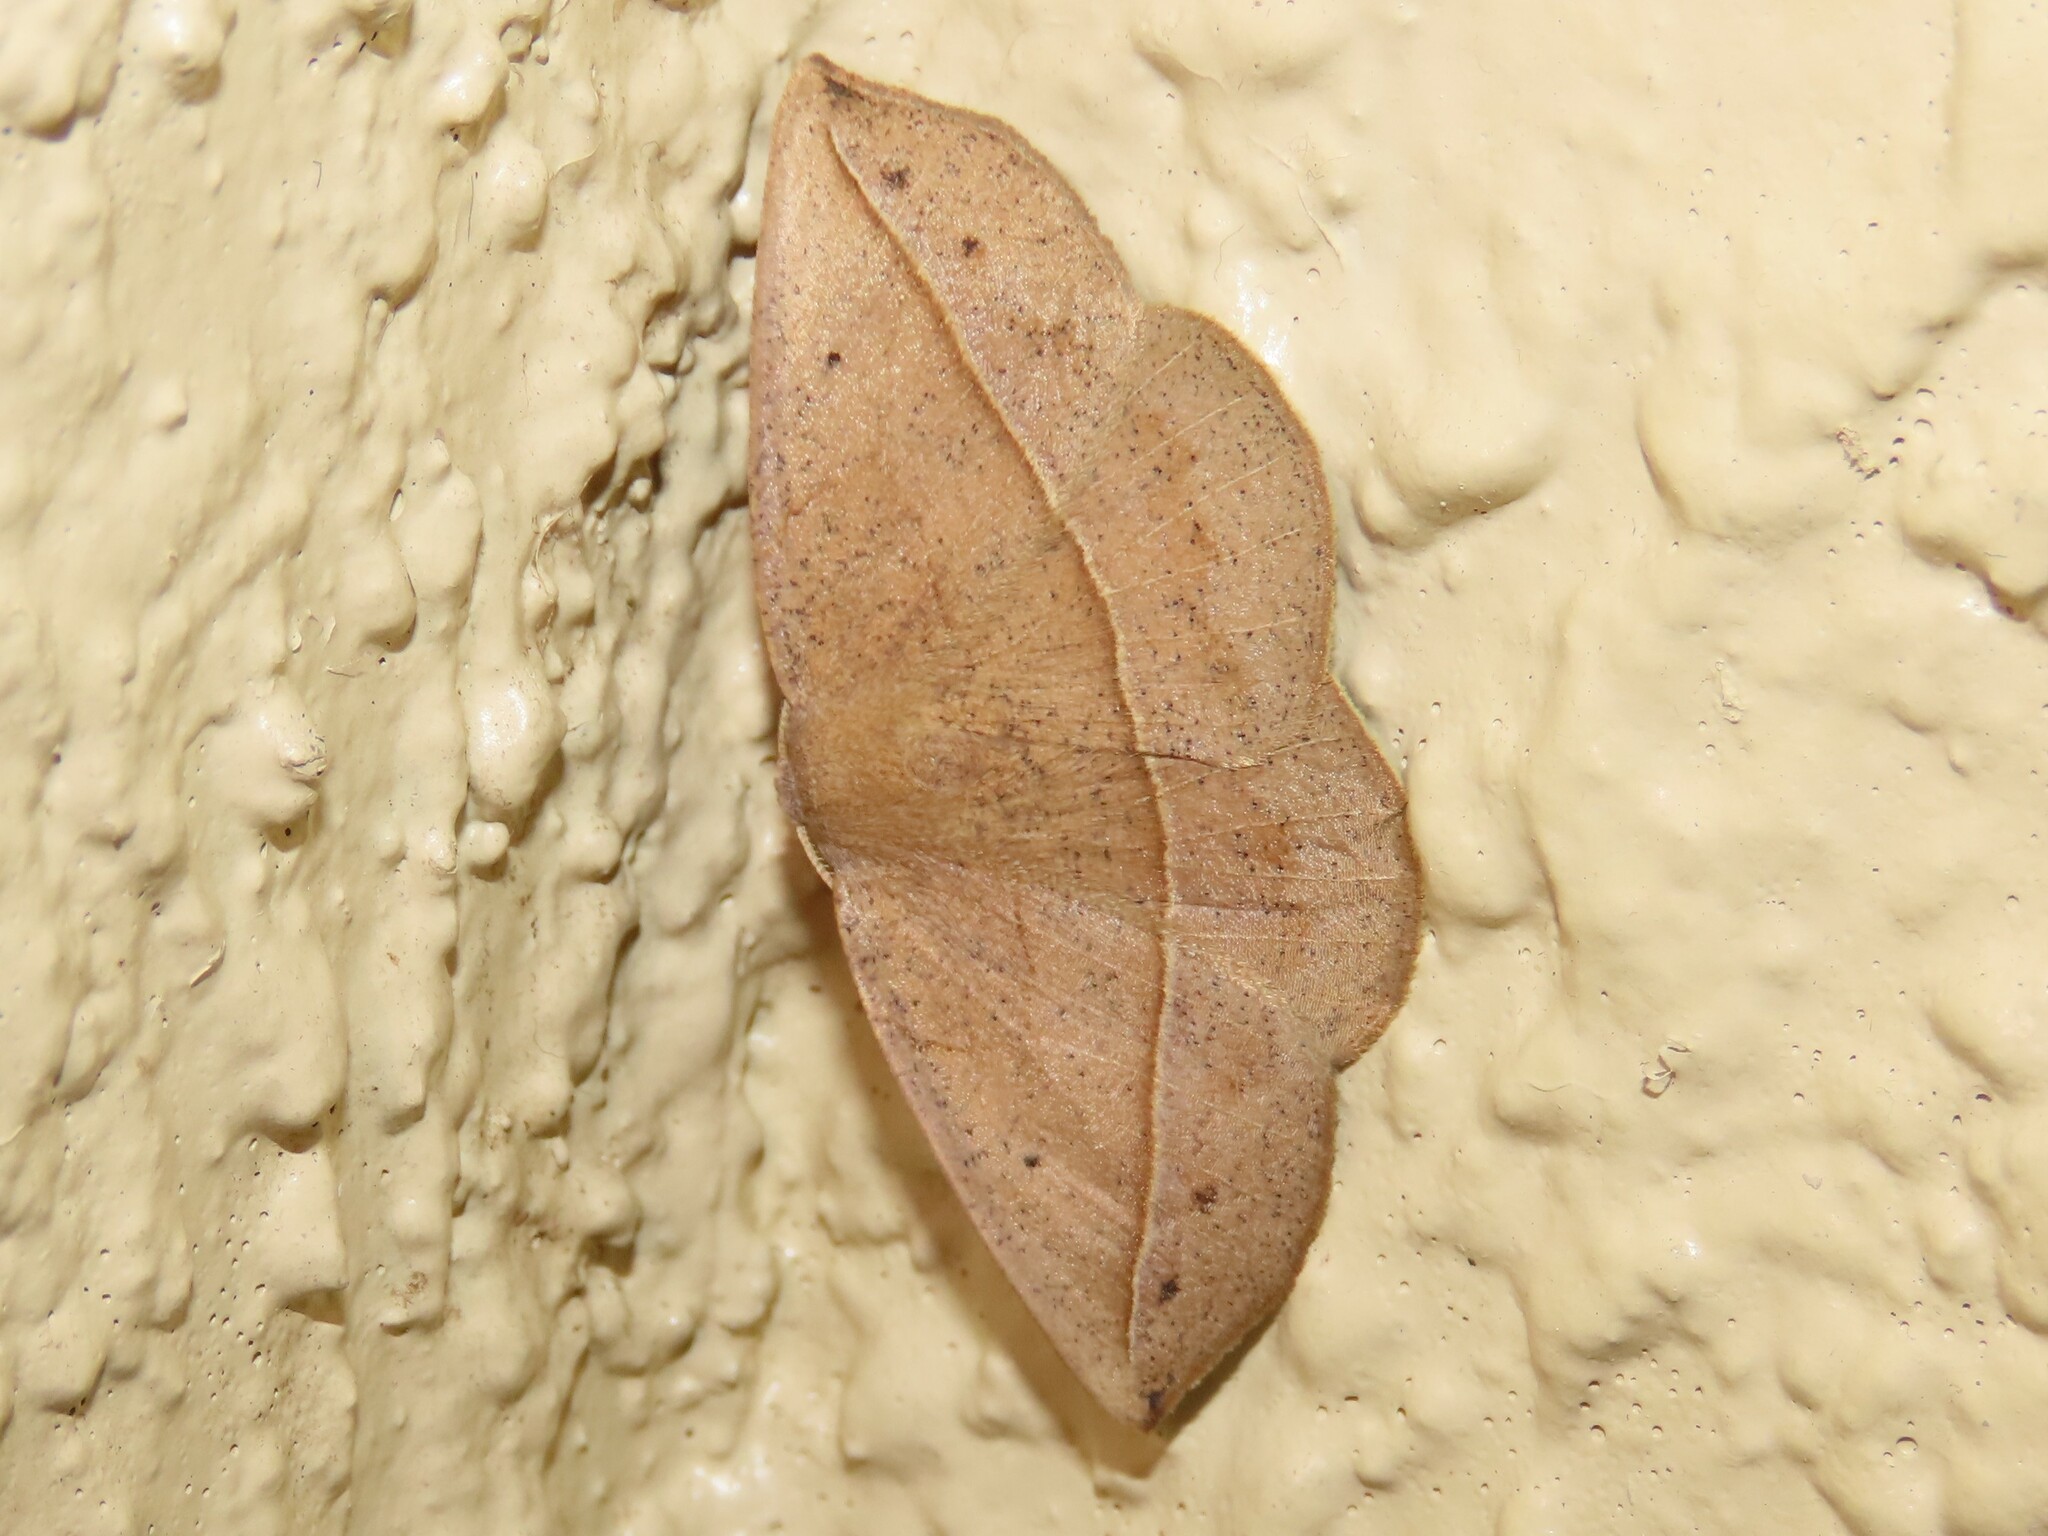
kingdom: Animalia
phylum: Arthropoda
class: Insecta
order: Lepidoptera
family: Geometridae
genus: Eusarca
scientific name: Eusarca fundaria
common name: Dark-edged eusarca moth
